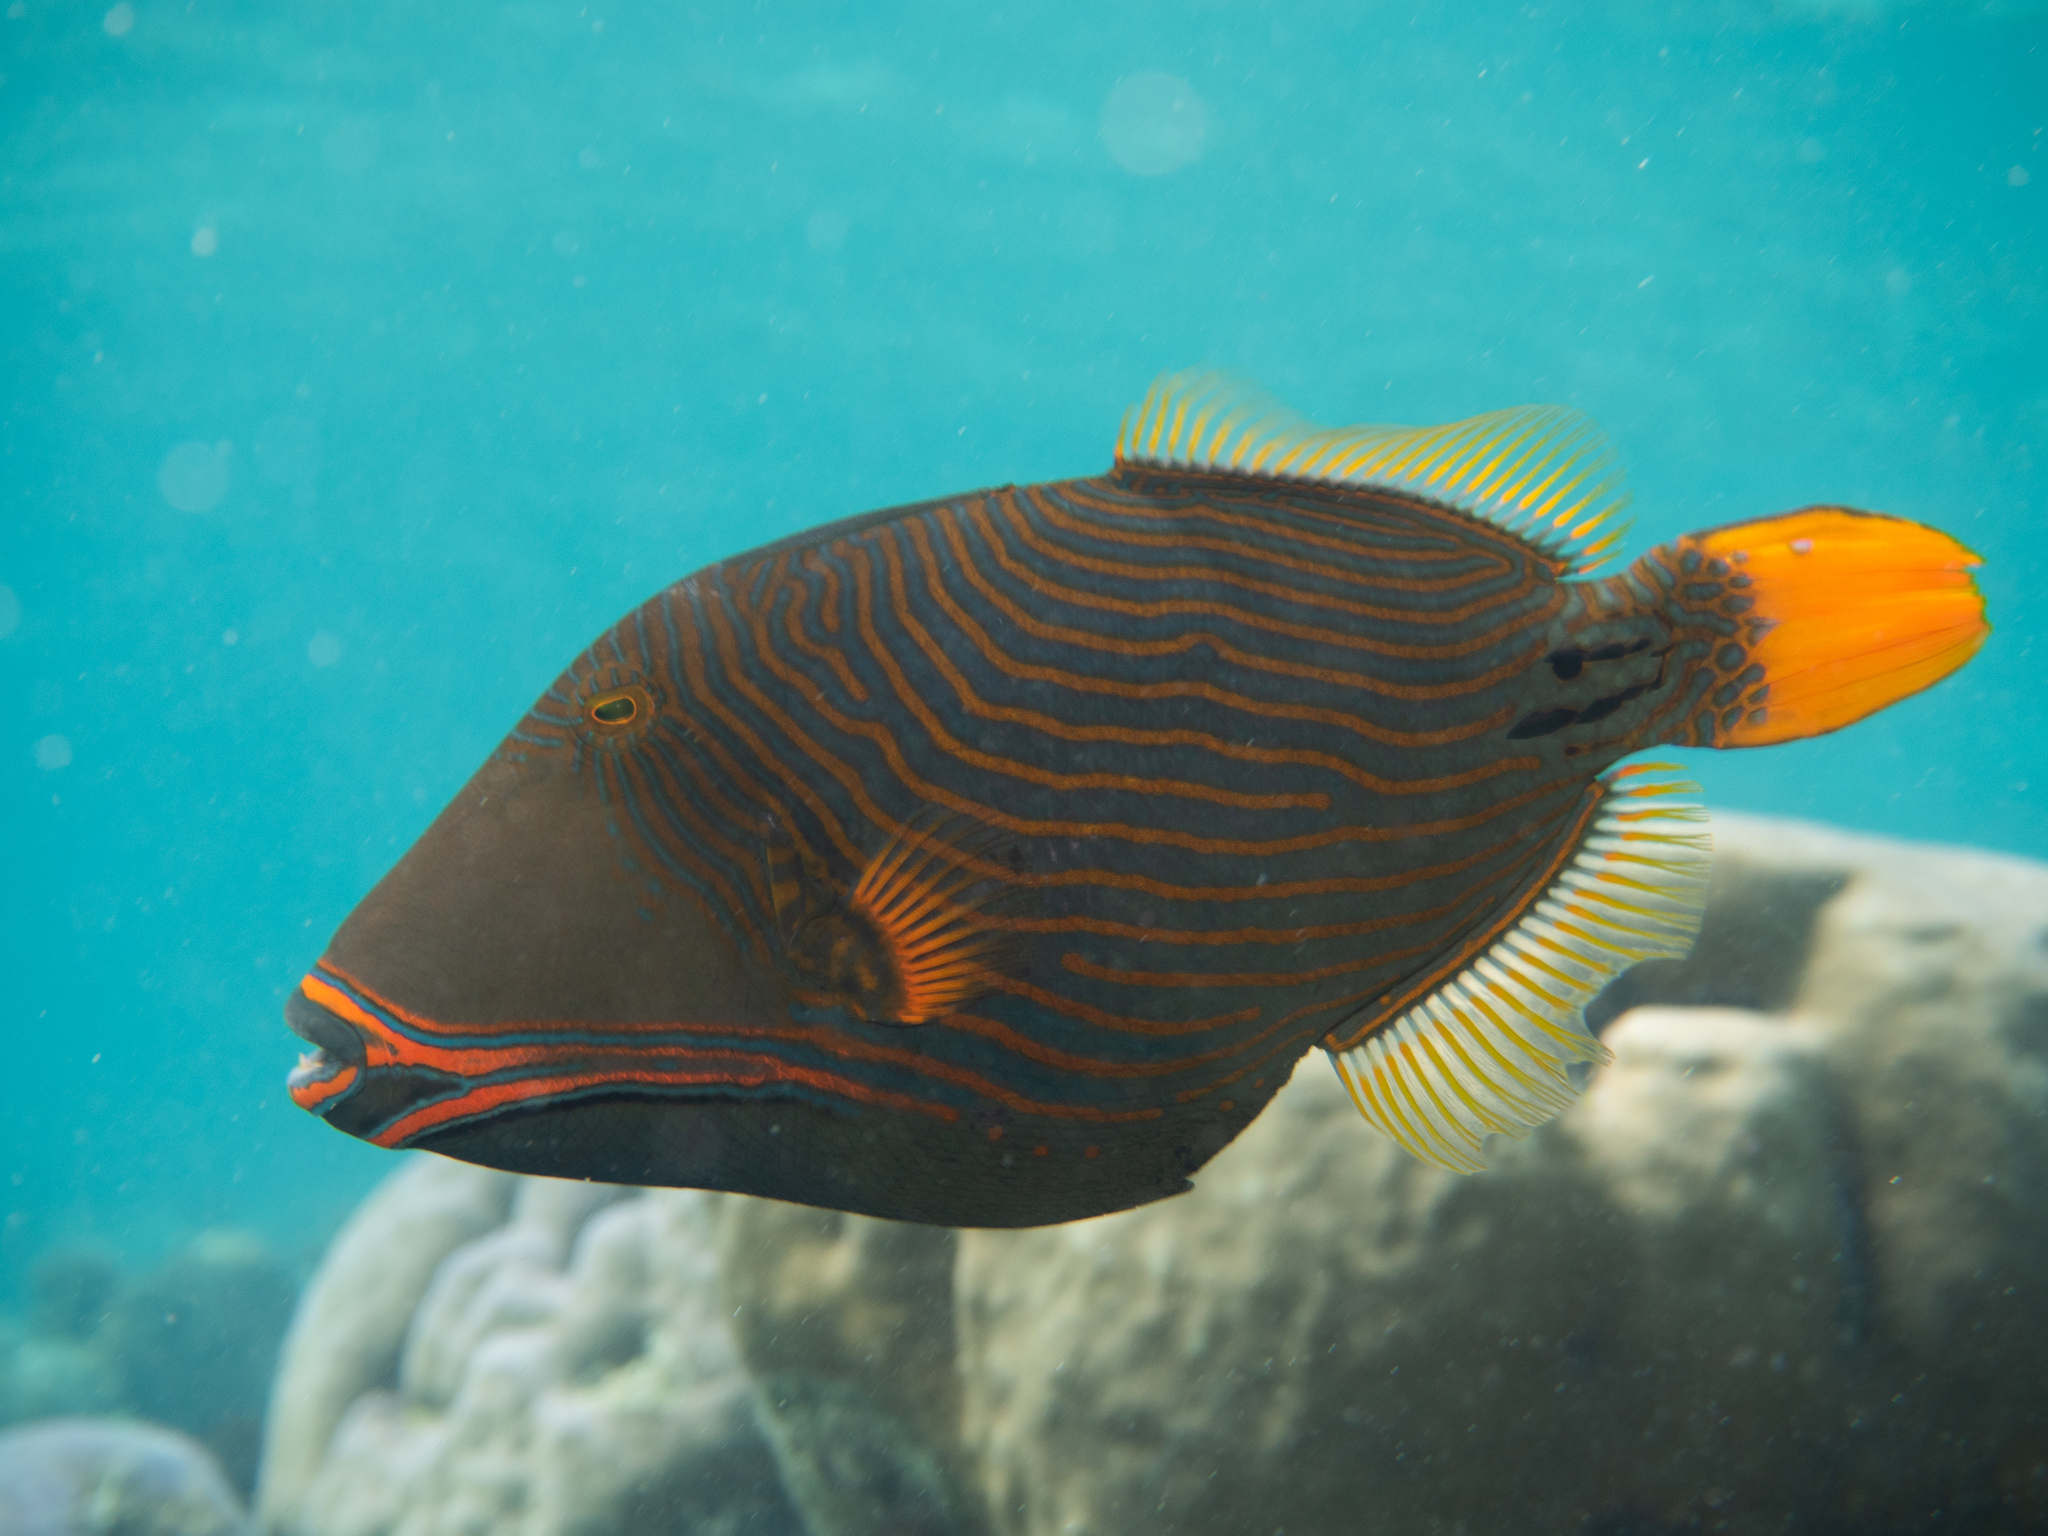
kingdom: Animalia
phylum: Chordata
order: Tetraodontiformes
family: Balistidae
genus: Balistapus
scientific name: Balistapus undulatus
